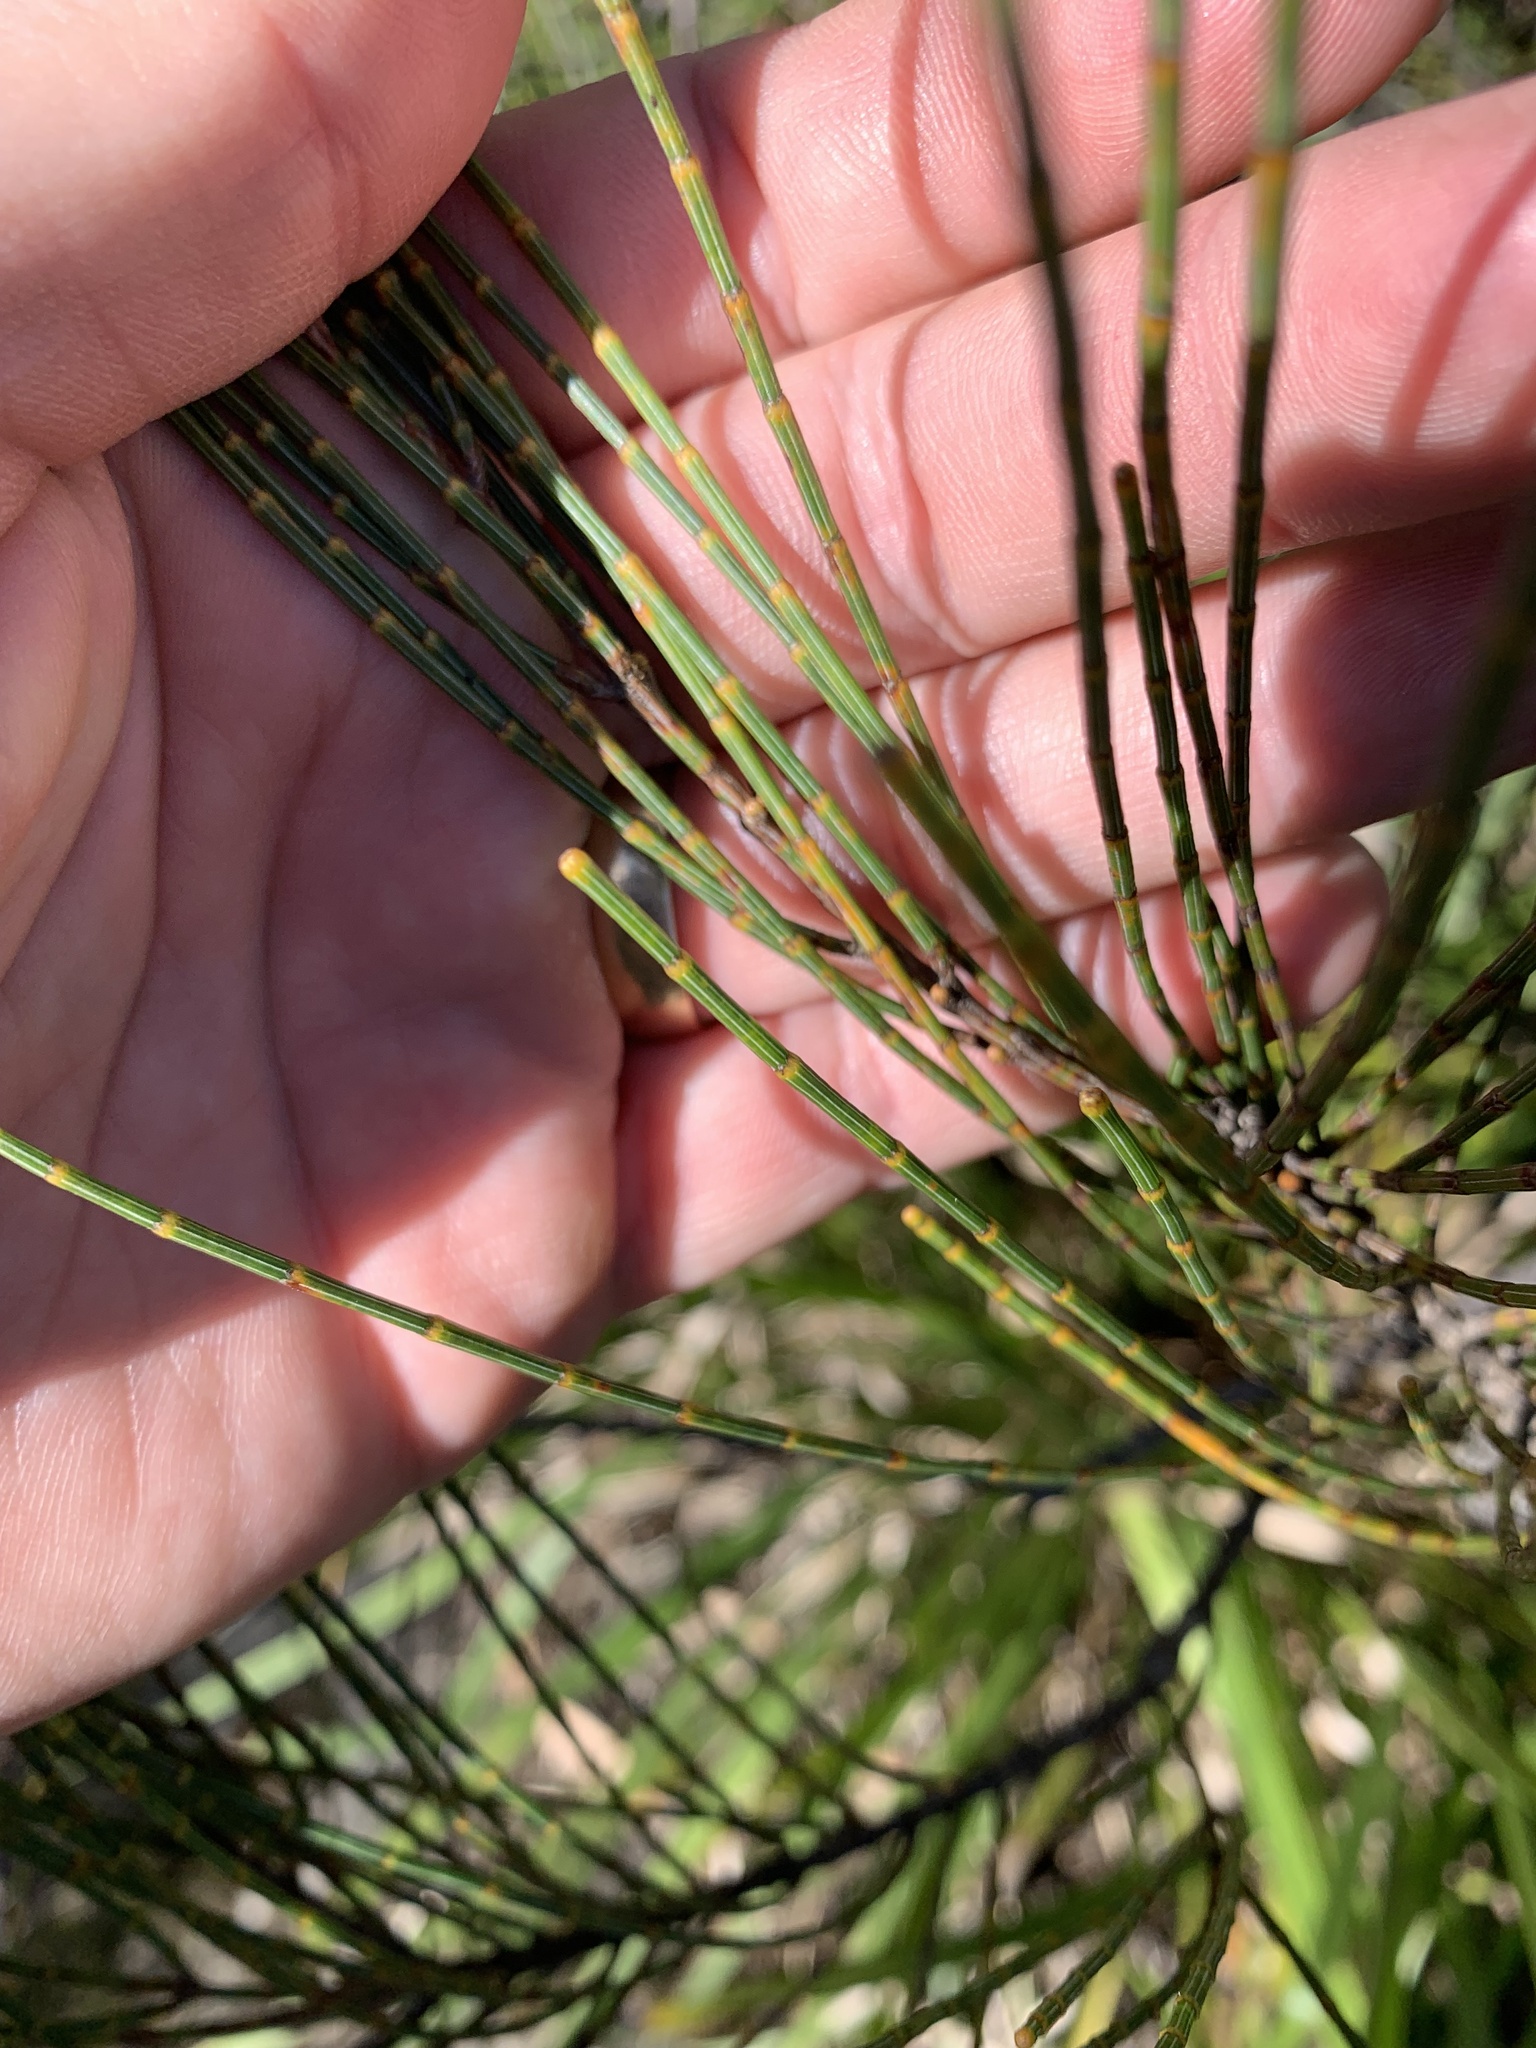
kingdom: Plantae
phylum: Tracheophyta
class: Magnoliopsida
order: Fagales
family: Casuarinaceae
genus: Allocasuarina
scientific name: Allocasuarina distyla
